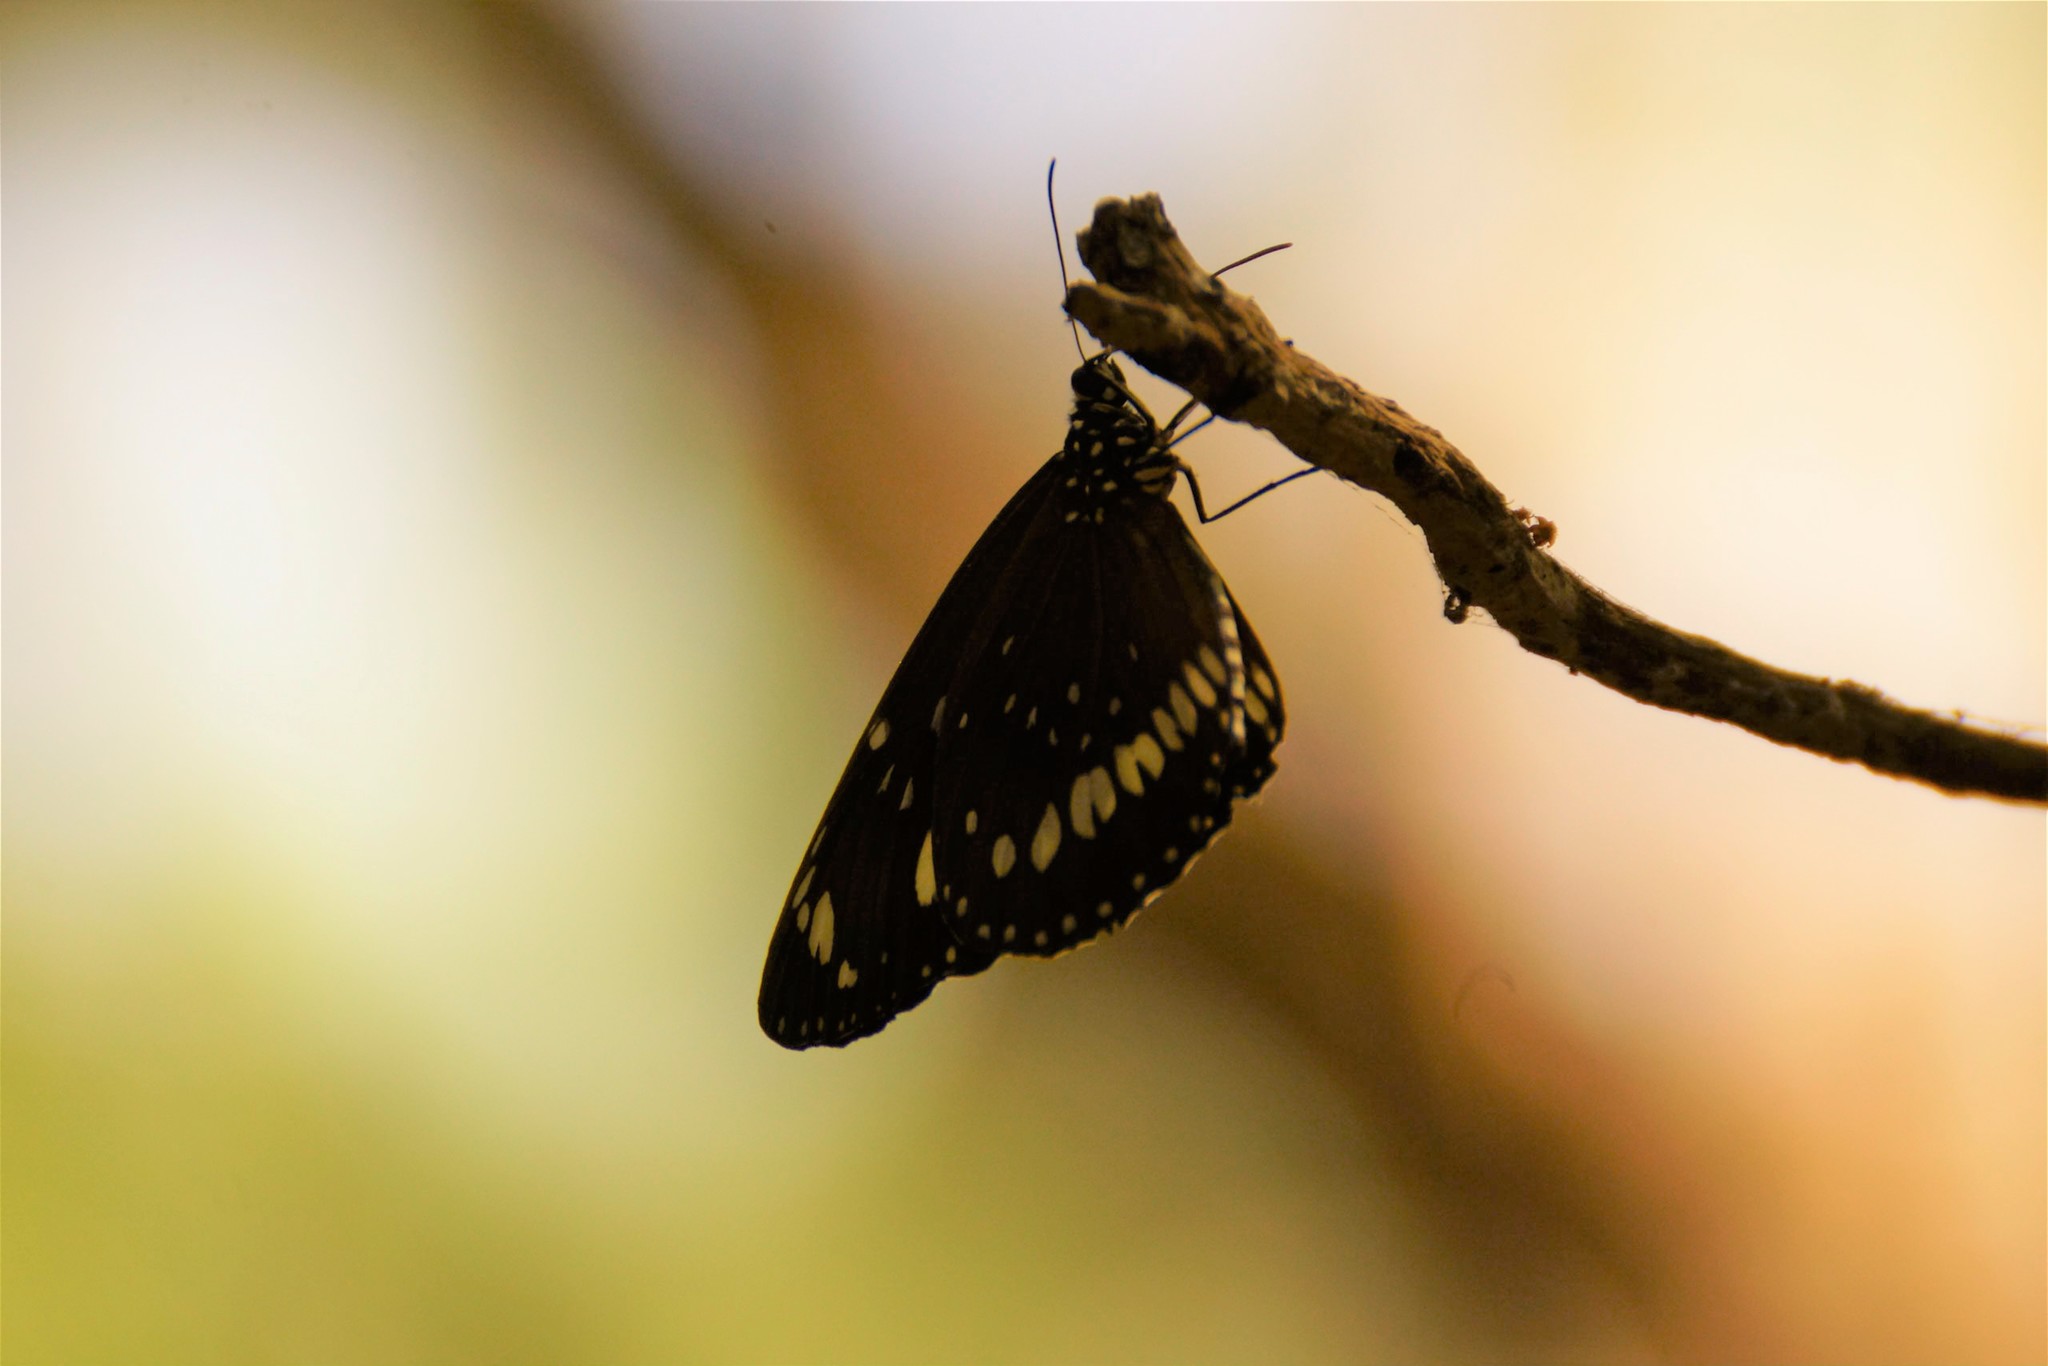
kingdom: Animalia
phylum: Arthropoda
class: Insecta
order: Lepidoptera
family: Nymphalidae
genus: Euploea
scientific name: Euploea core
